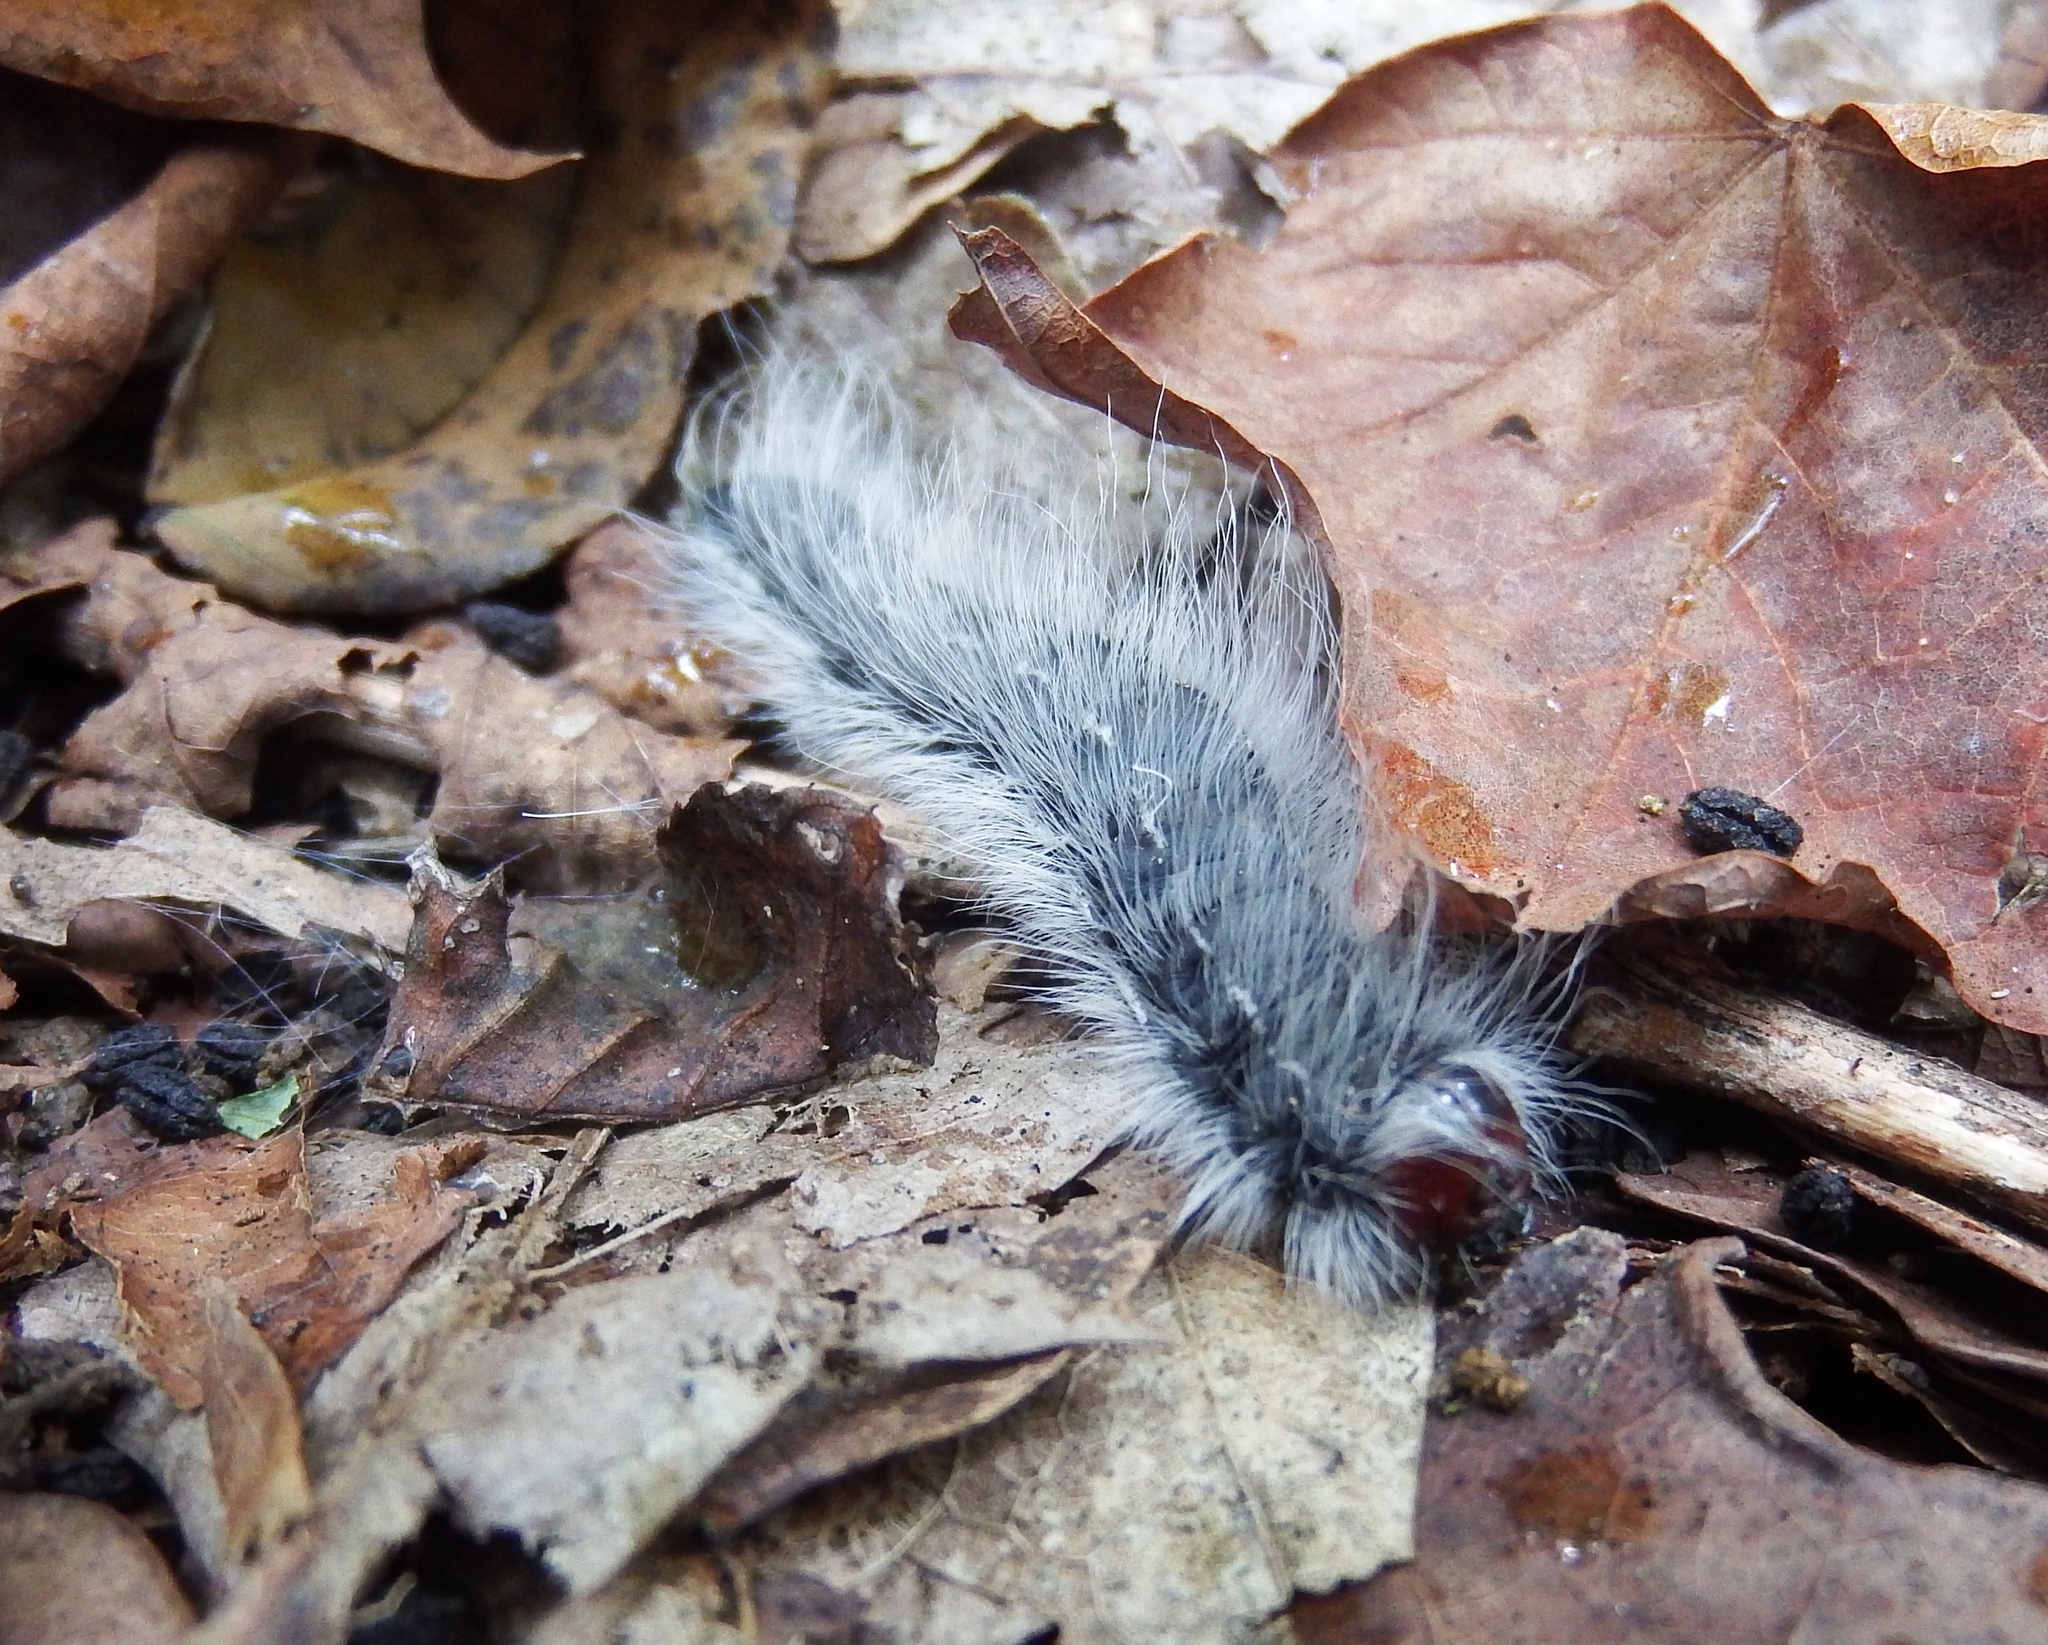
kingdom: Animalia
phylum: Arthropoda
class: Insecta
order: Lepidoptera
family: Notodontidae
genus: Datana
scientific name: Datana integerrima
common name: Walnut caterpillar
